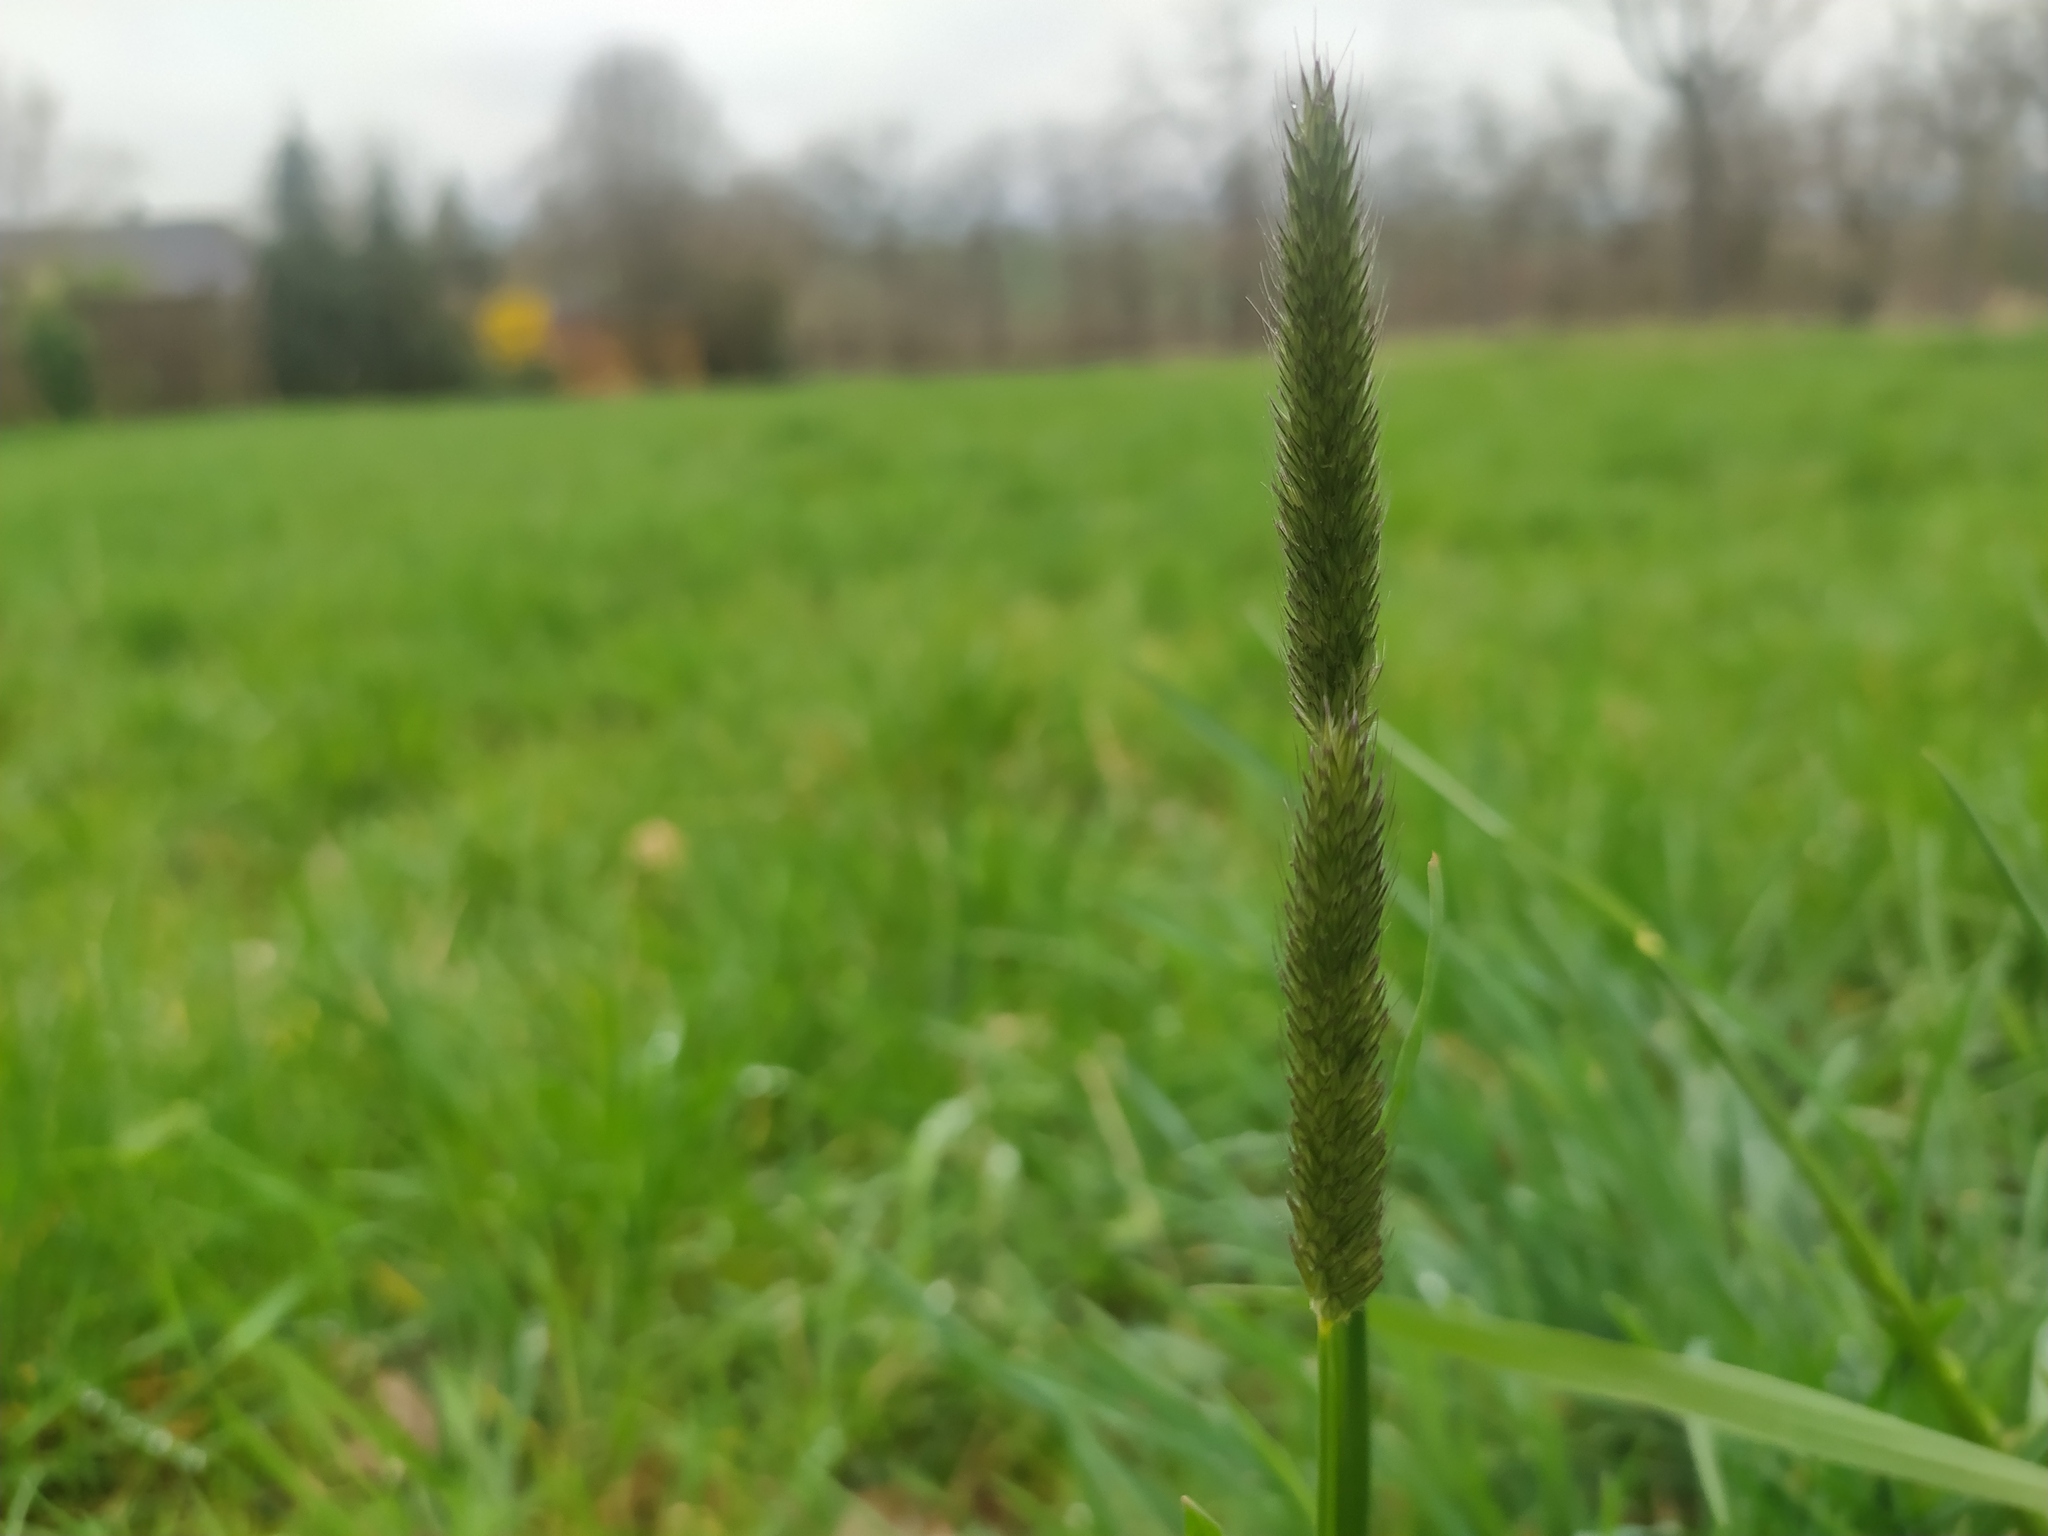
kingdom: Plantae
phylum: Tracheophyta
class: Liliopsida
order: Poales
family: Poaceae
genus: Alopecurus
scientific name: Alopecurus pratensis
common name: Meadow foxtail
